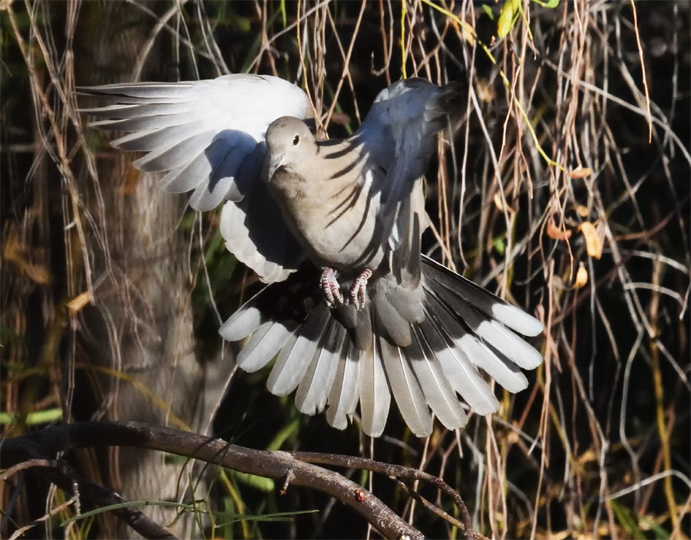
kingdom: Animalia
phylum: Chordata
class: Aves
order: Columbiformes
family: Columbidae
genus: Streptopelia
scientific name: Streptopelia decaocto
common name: Eurasian collared dove
